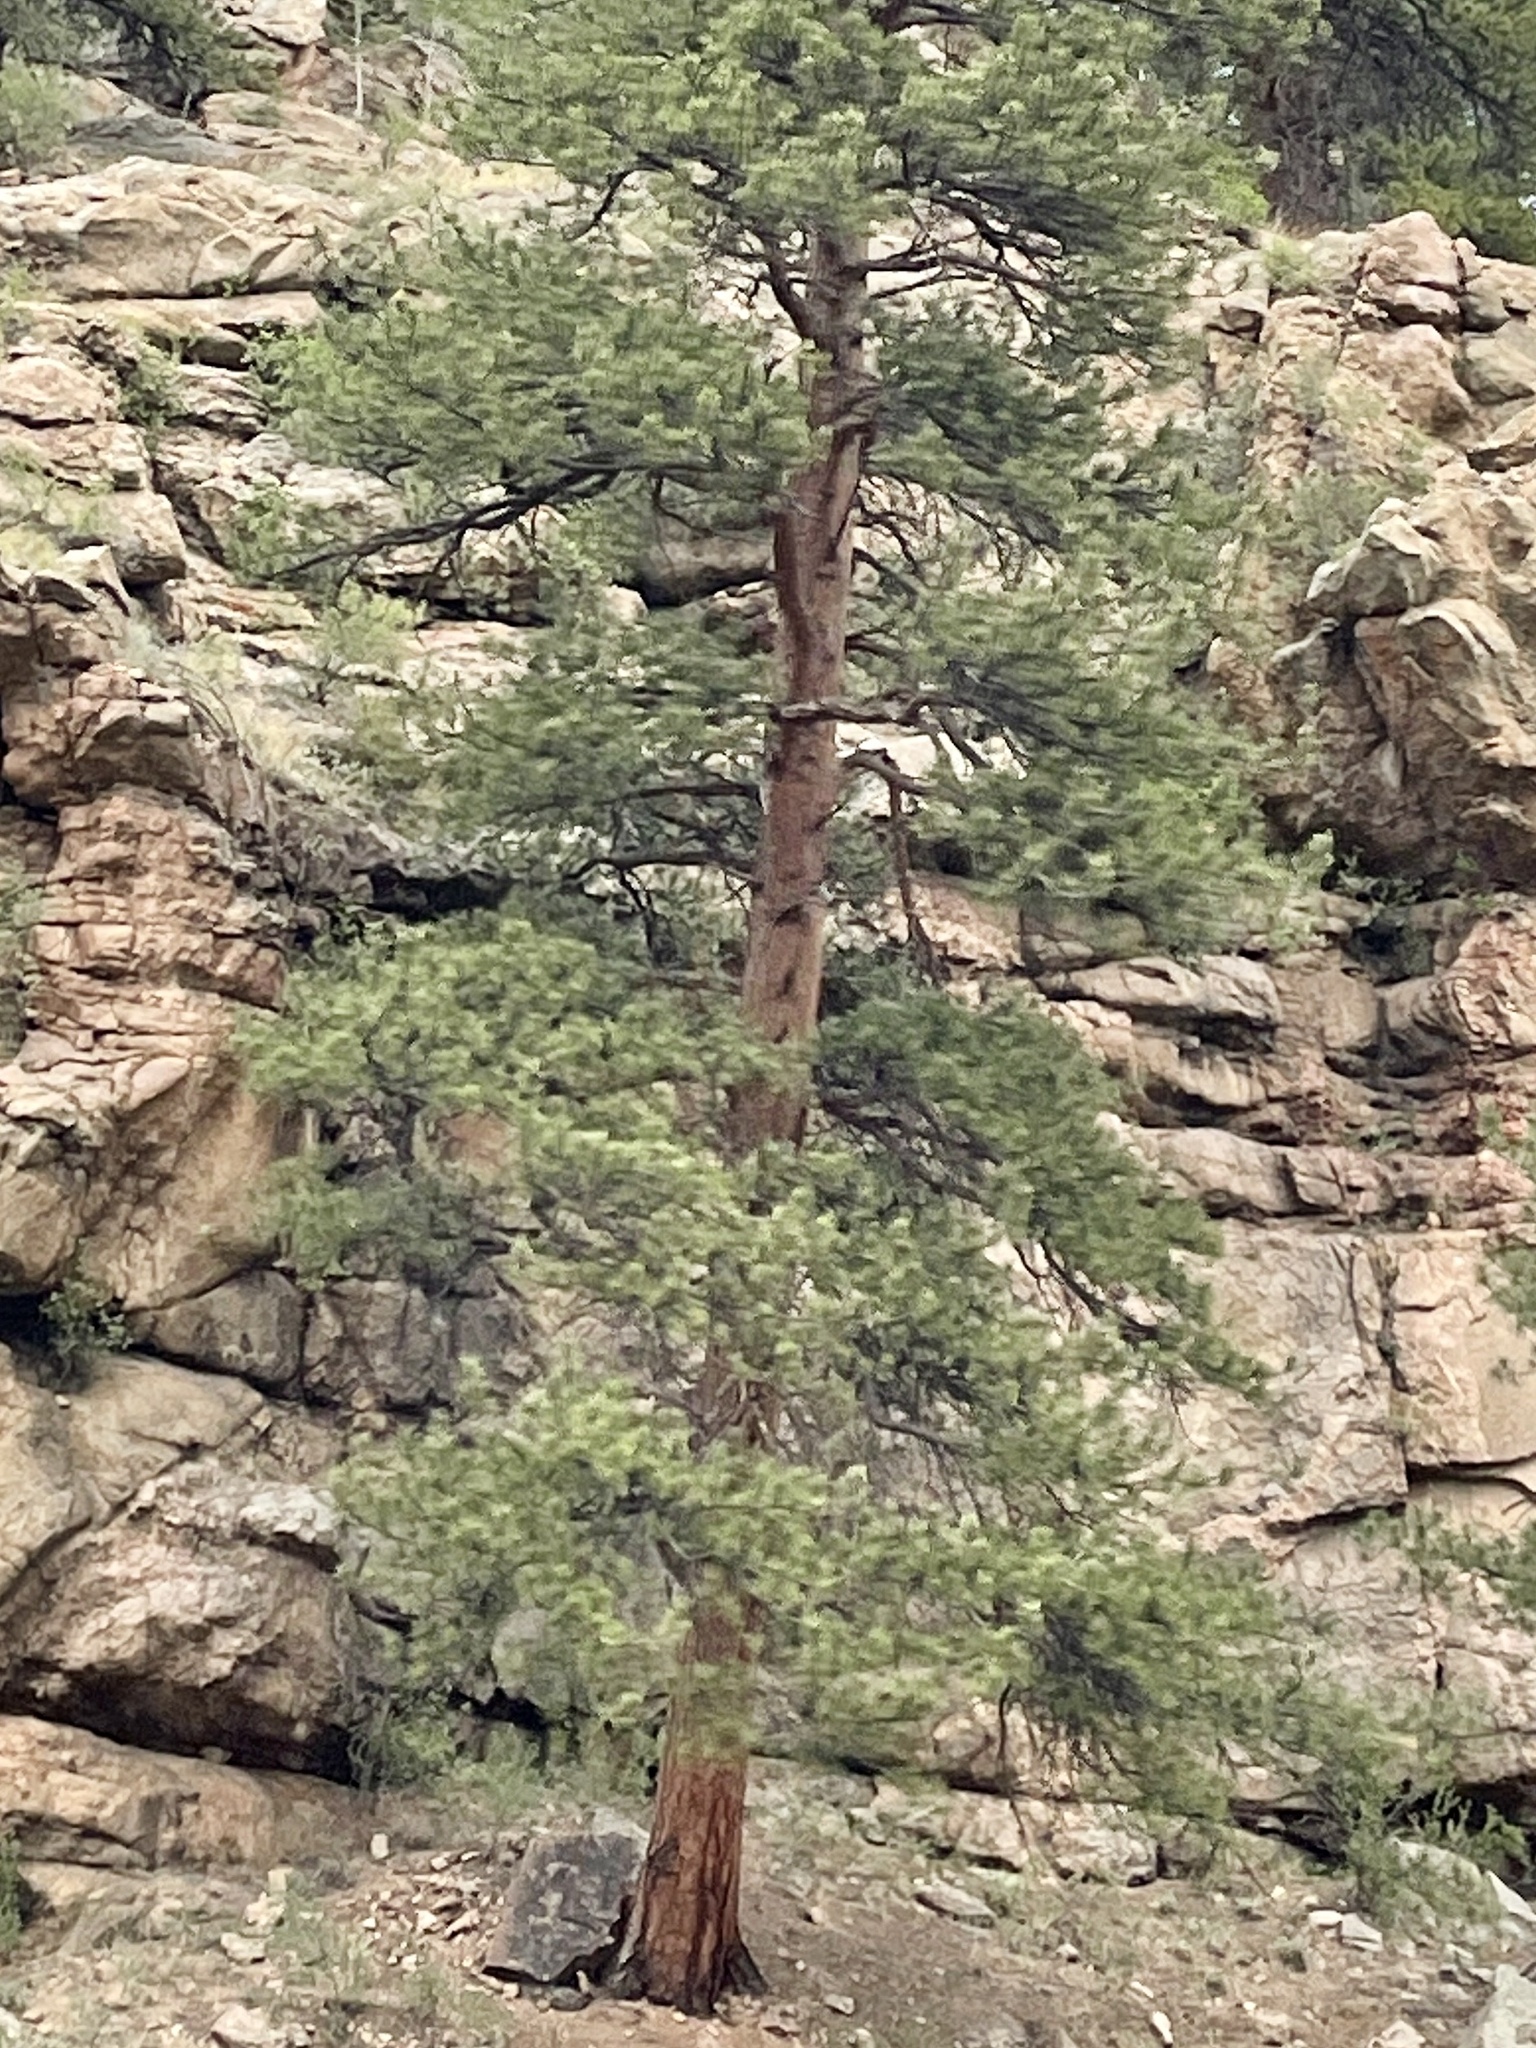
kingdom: Plantae
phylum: Tracheophyta
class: Pinopsida
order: Pinales
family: Pinaceae
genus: Pinus
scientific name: Pinus ponderosa
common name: Western yellow-pine
